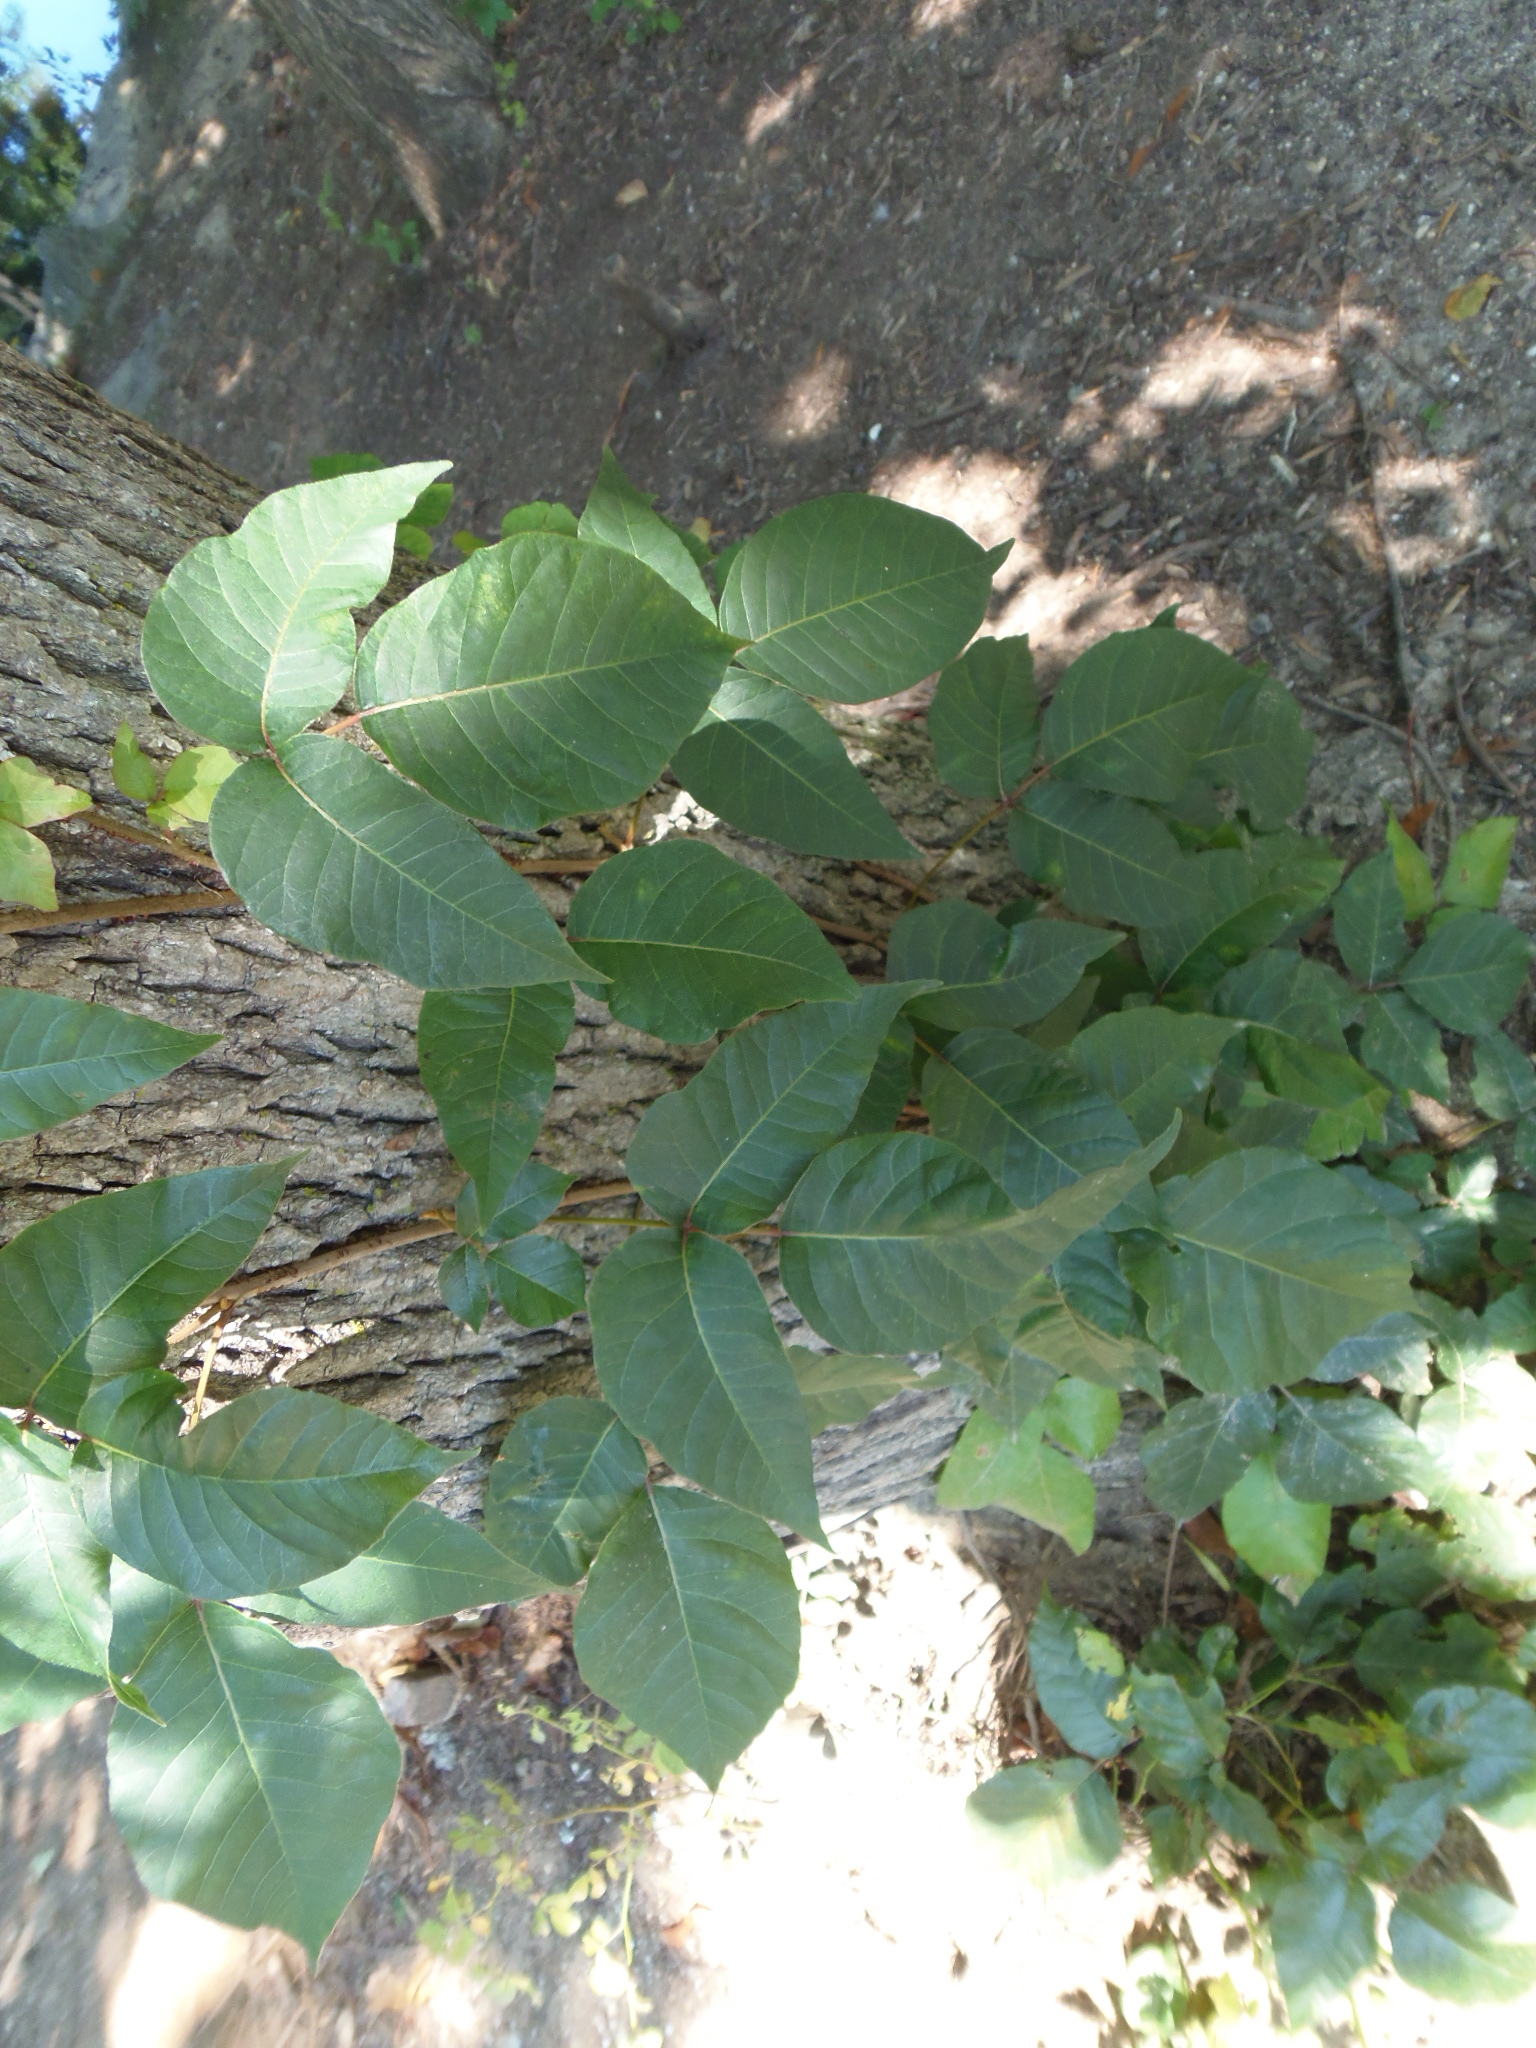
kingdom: Plantae
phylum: Tracheophyta
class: Magnoliopsida
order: Sapindales
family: Anacardiaceae
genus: Toxicodendron
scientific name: Toxicodendron radicans
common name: Poison ivy
